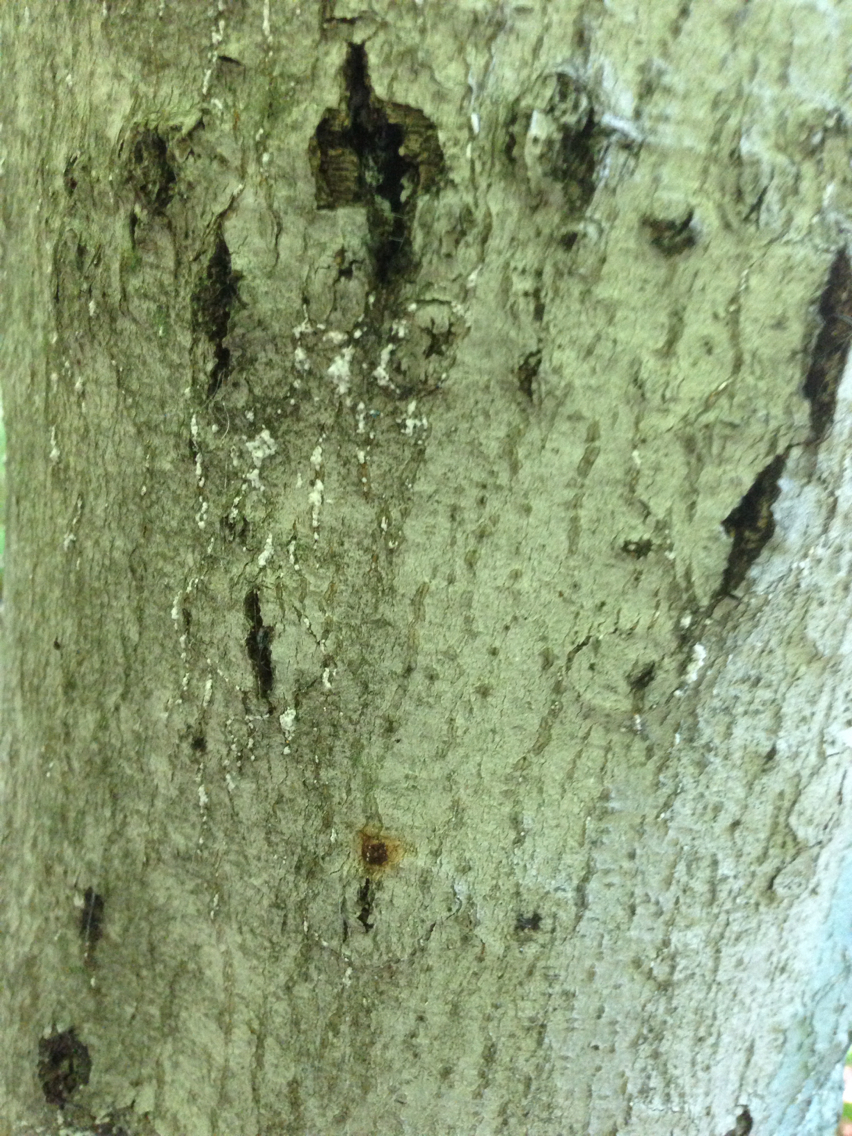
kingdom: Animalia
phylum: Arthropoda
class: Insecta
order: Hemiptera
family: Eriococcidae
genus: Cryptococcus
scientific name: Cryptococcus fagisuga
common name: Beech scale
